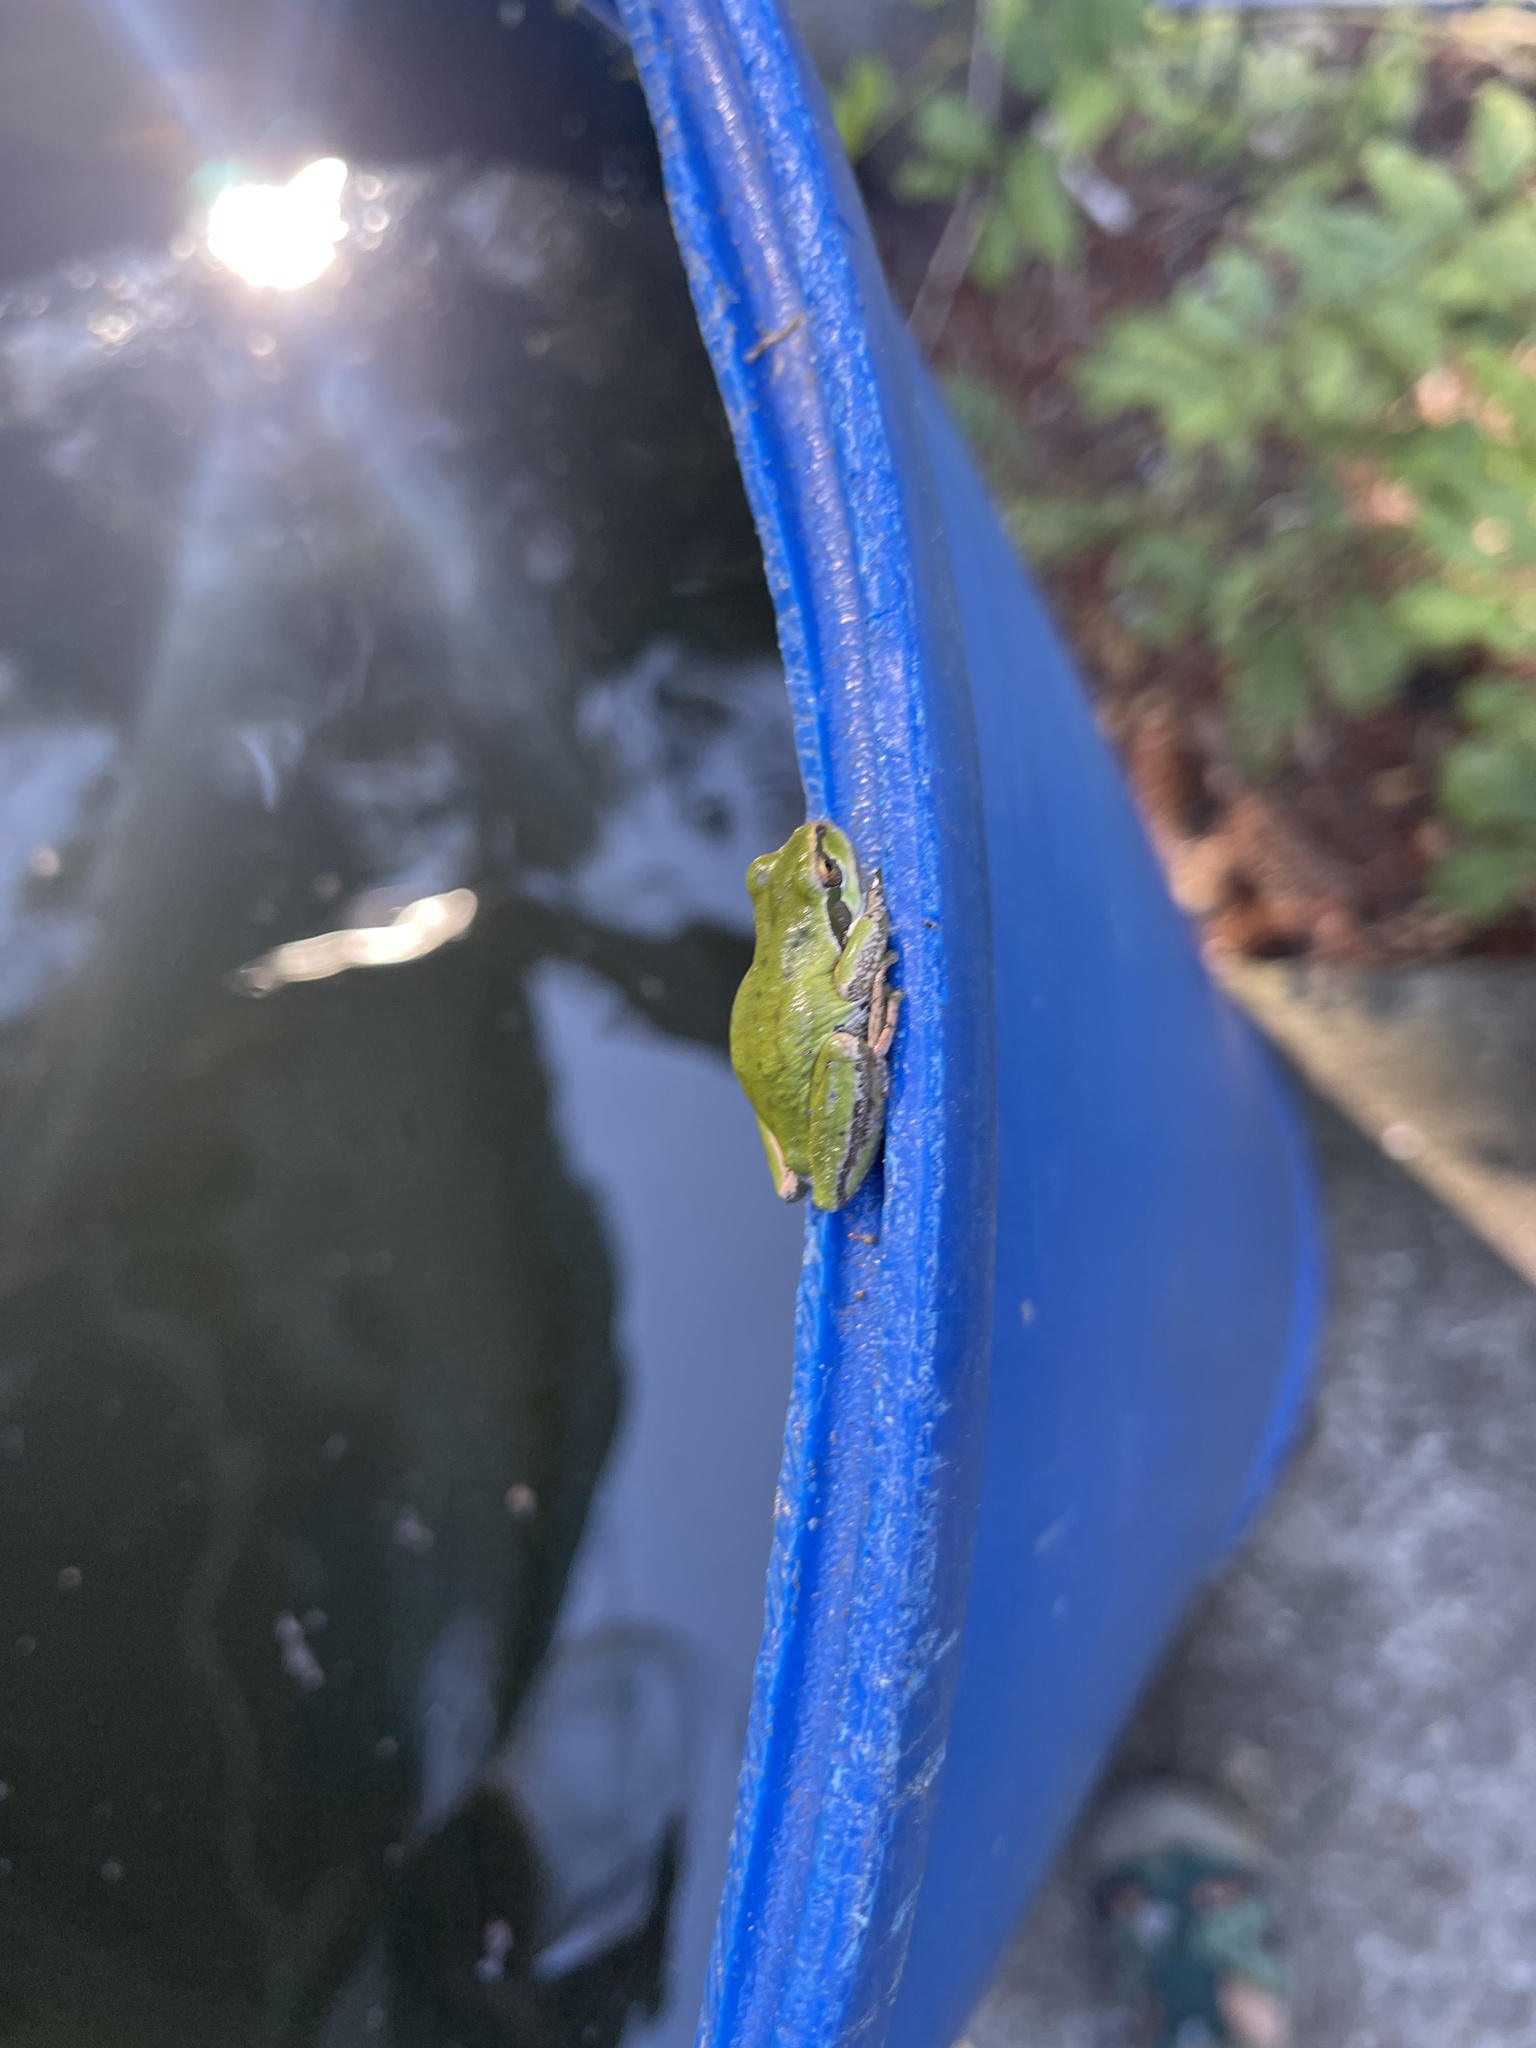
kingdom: Animalia
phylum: Chordata
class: Amphibia
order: Anura
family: Hylidae
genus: Pseudacris
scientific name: Pseudacris regilla
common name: Pacific chorus frog
